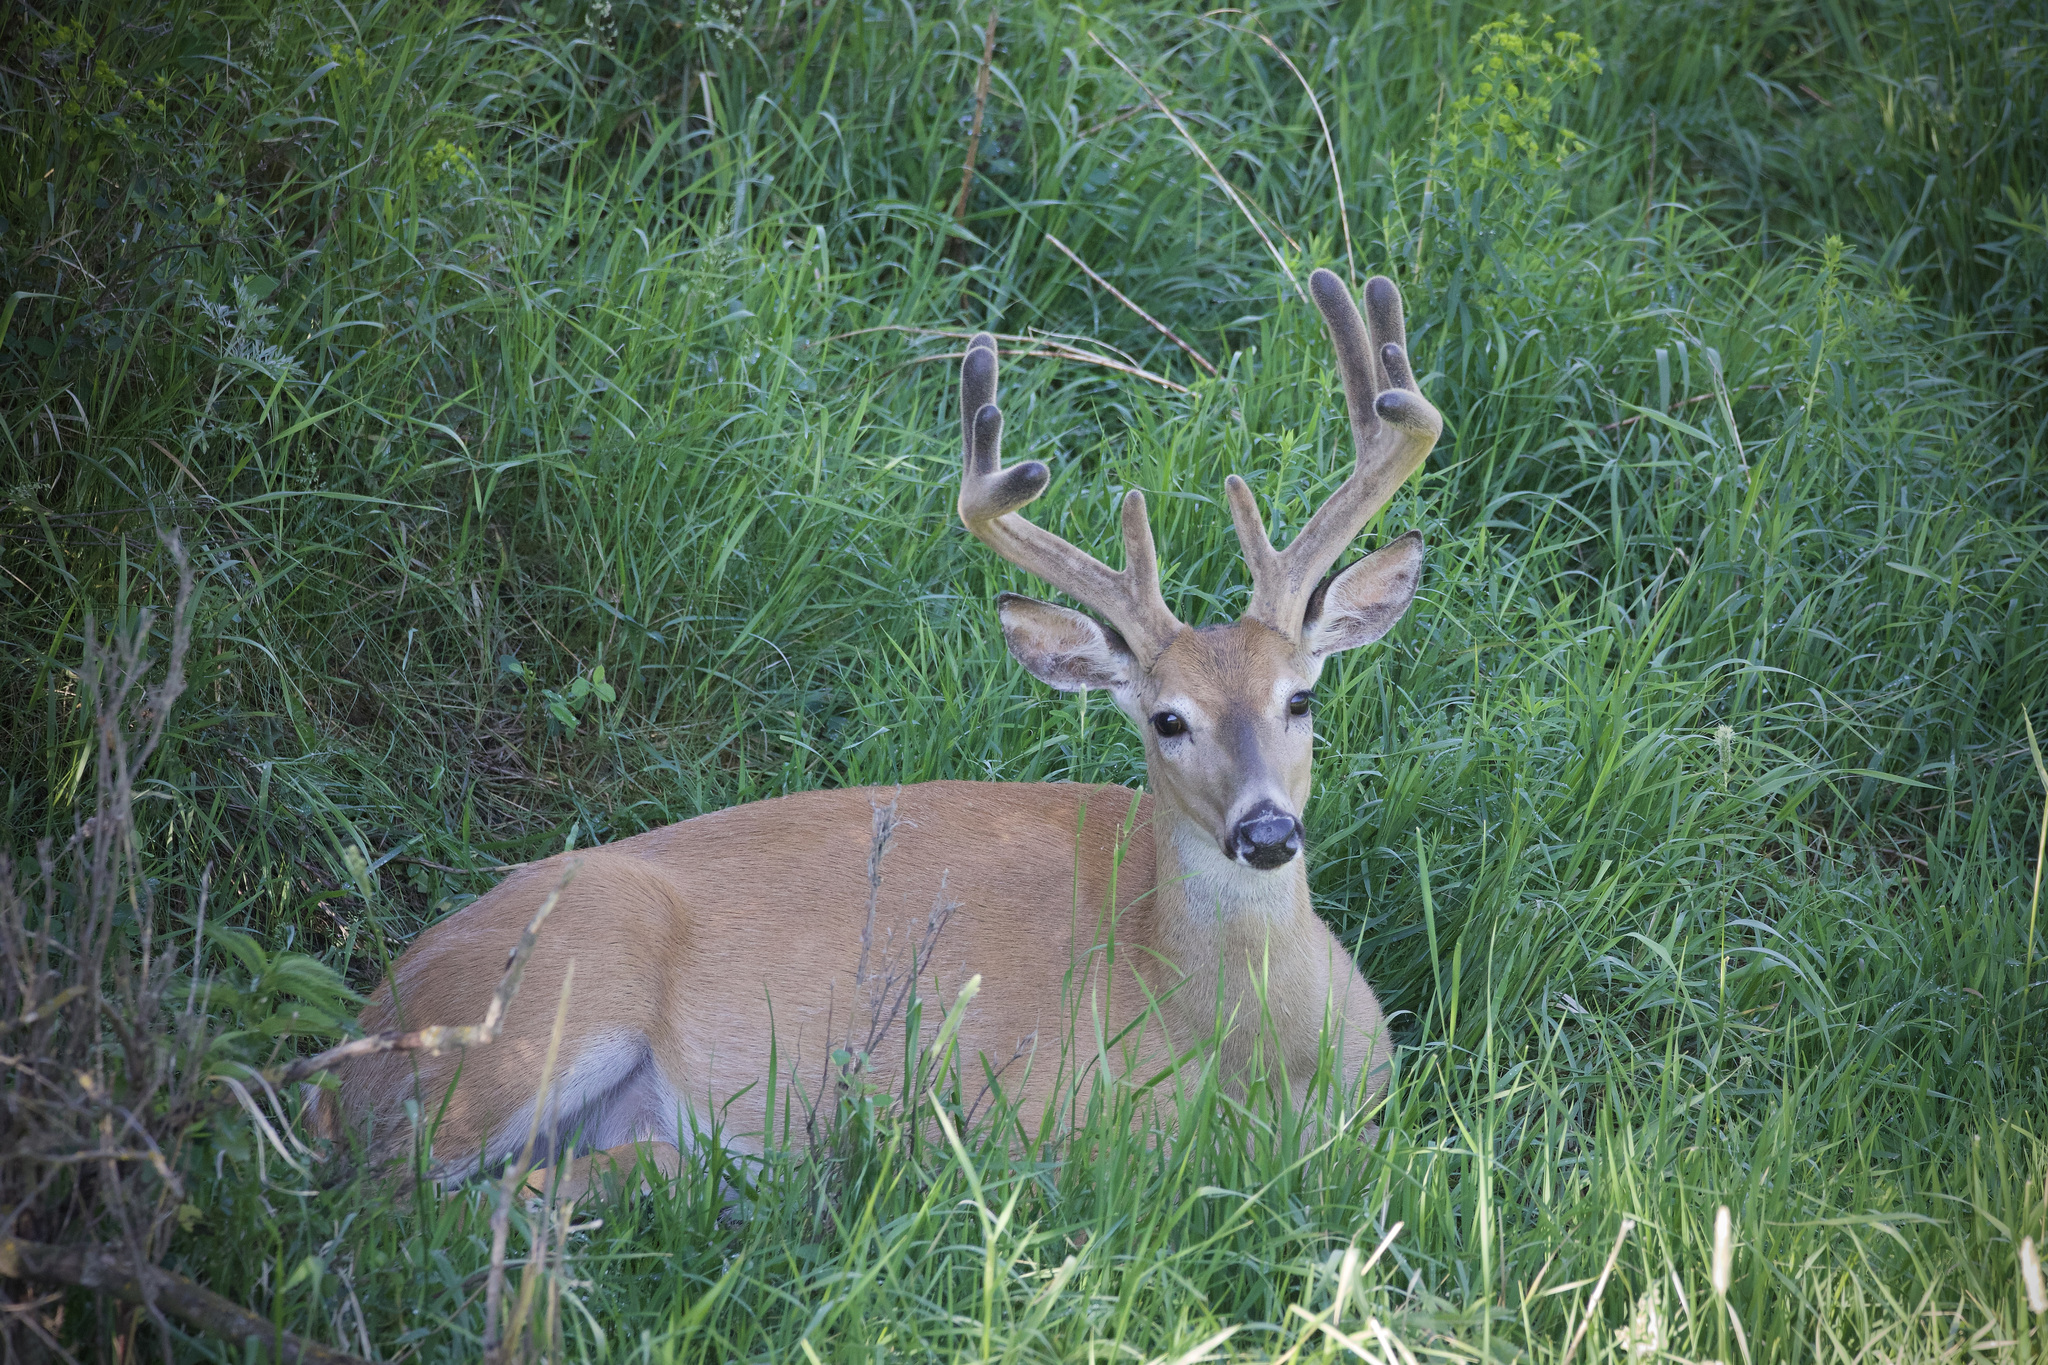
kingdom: Animalia
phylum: Chordata
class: Mammalia
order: Artiodactyla
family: Cervidae
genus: Odocoileus
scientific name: Odocoileus virginianus
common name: White-tailed deer
